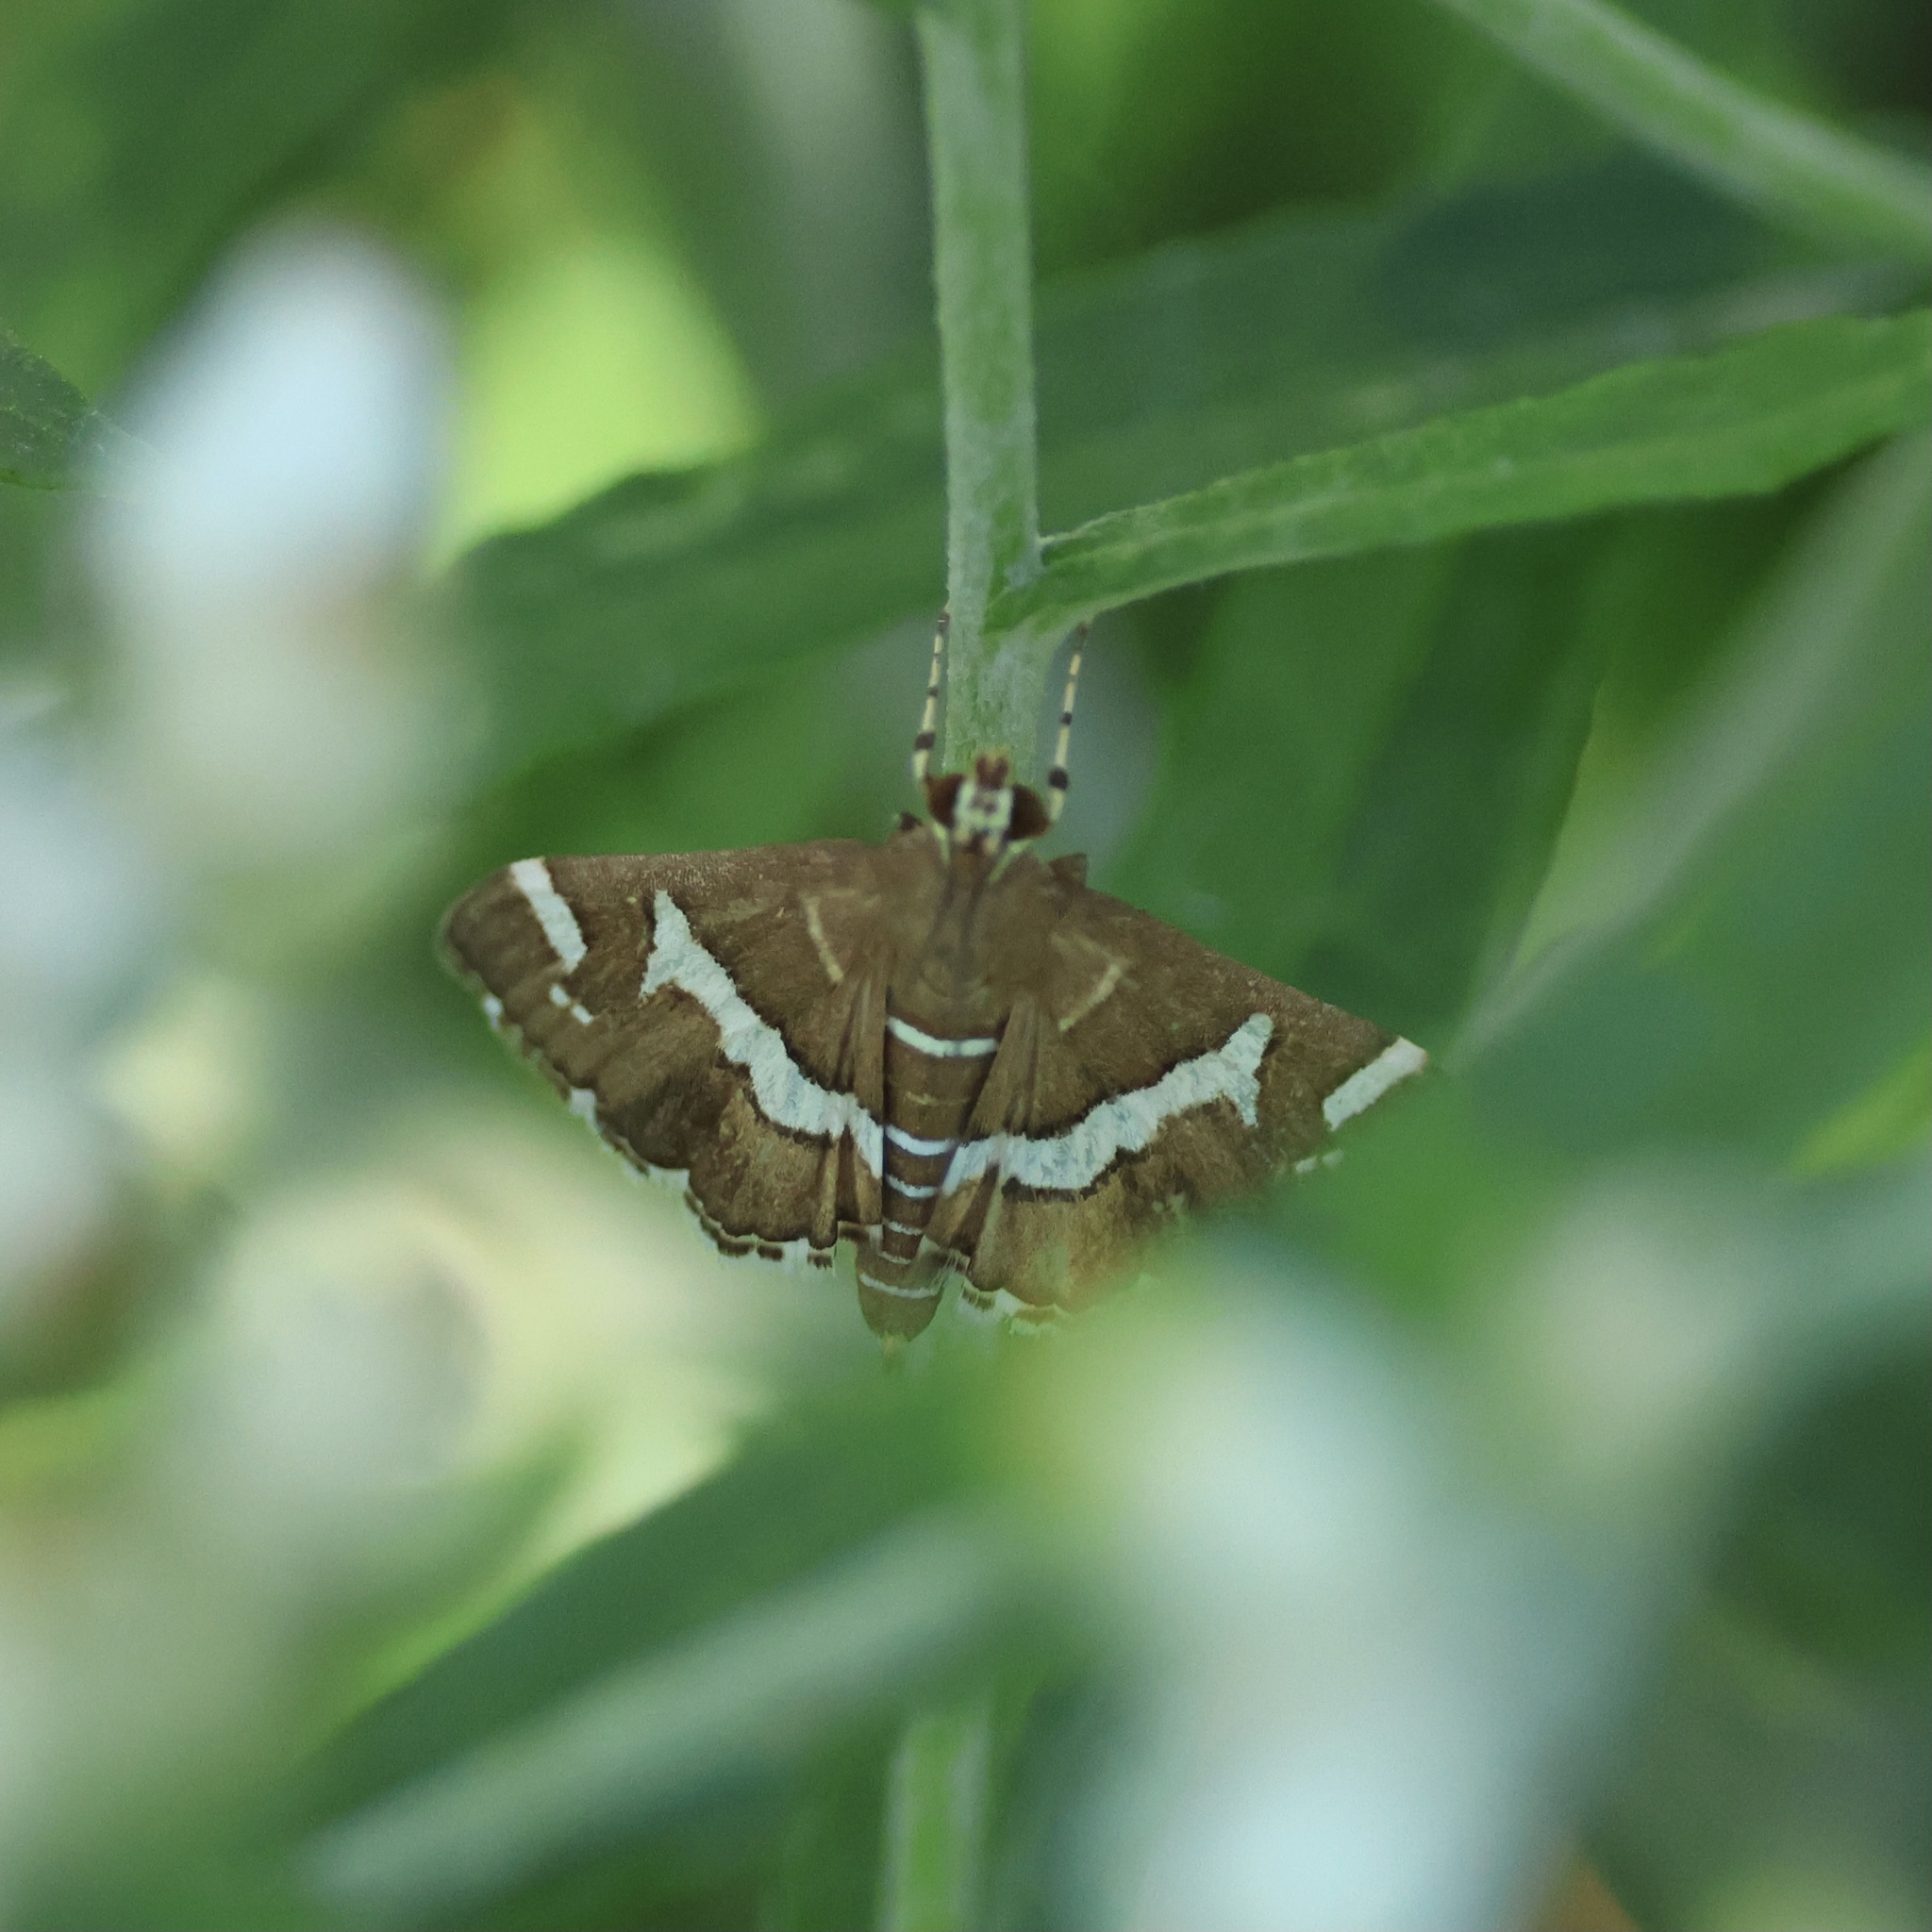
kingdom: Animalia
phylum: Arthropoda
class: Insecta
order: Lepidoptera
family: Crambidae
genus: Spoladea
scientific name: Spoladea recurvalis
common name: Beet webworm moth
